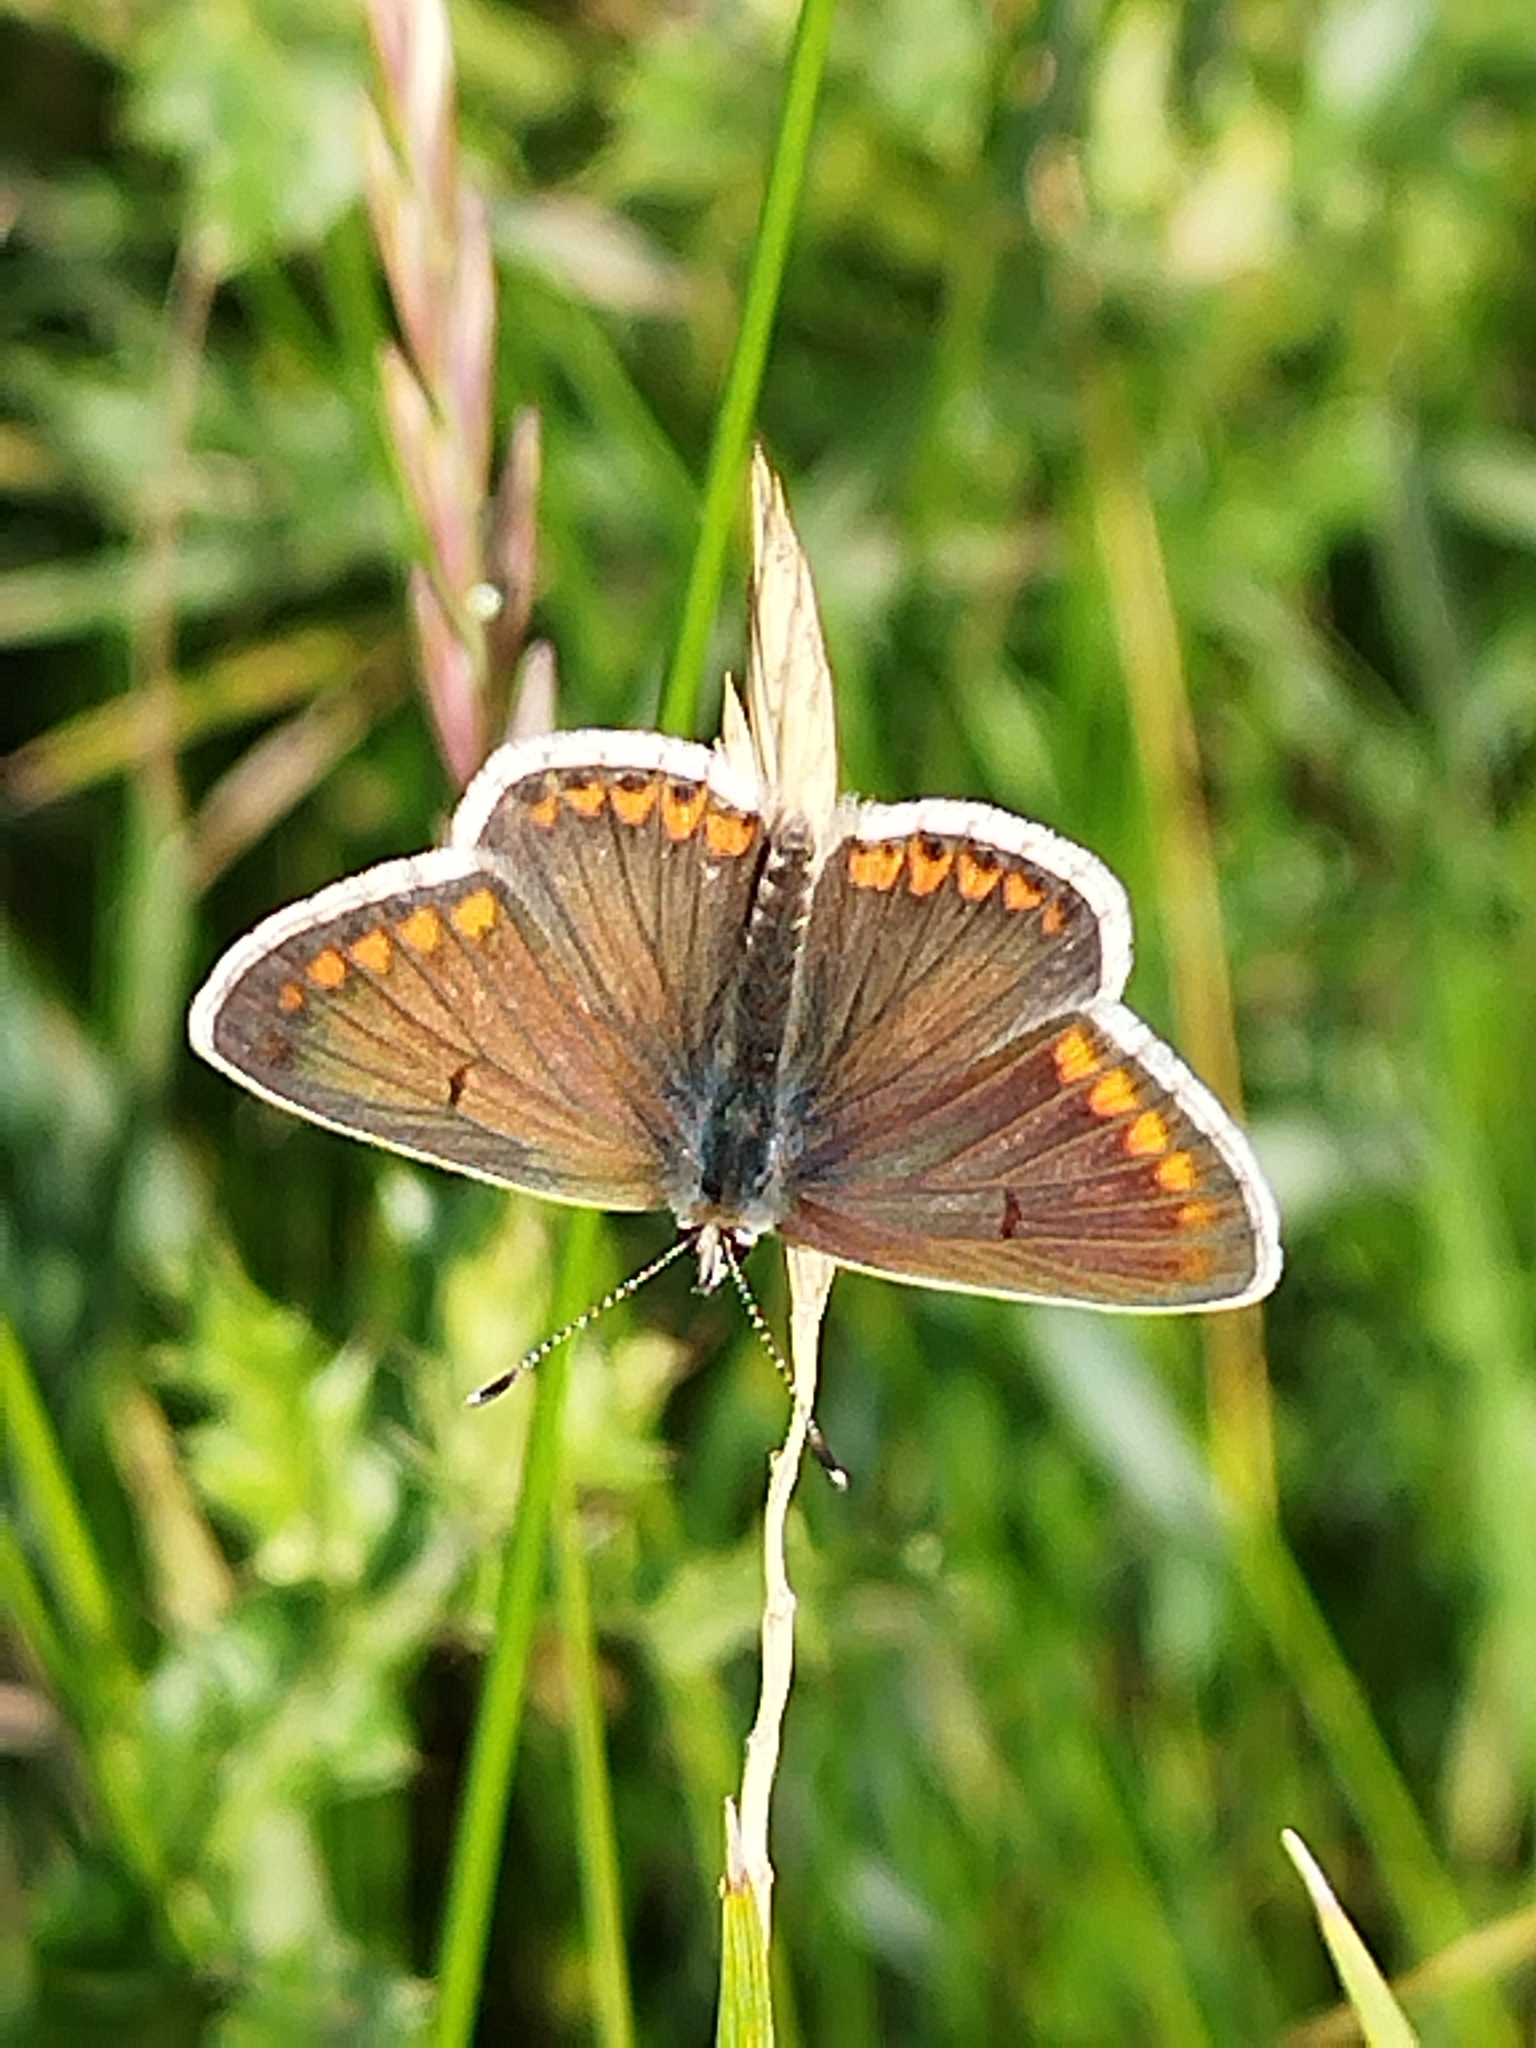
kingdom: Animalia
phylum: Arthropoda
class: Insecta
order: Lepidoptera
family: Lycaenidae
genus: Aricia
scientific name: Aricia agestis
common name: Brown argus
